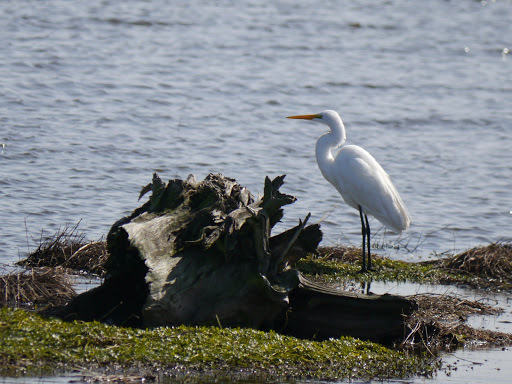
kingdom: Animalia
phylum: Chordata
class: Aves
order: Pelecaniformes
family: Ardeidae
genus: Ardea
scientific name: Ardea alba
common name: Great egret
